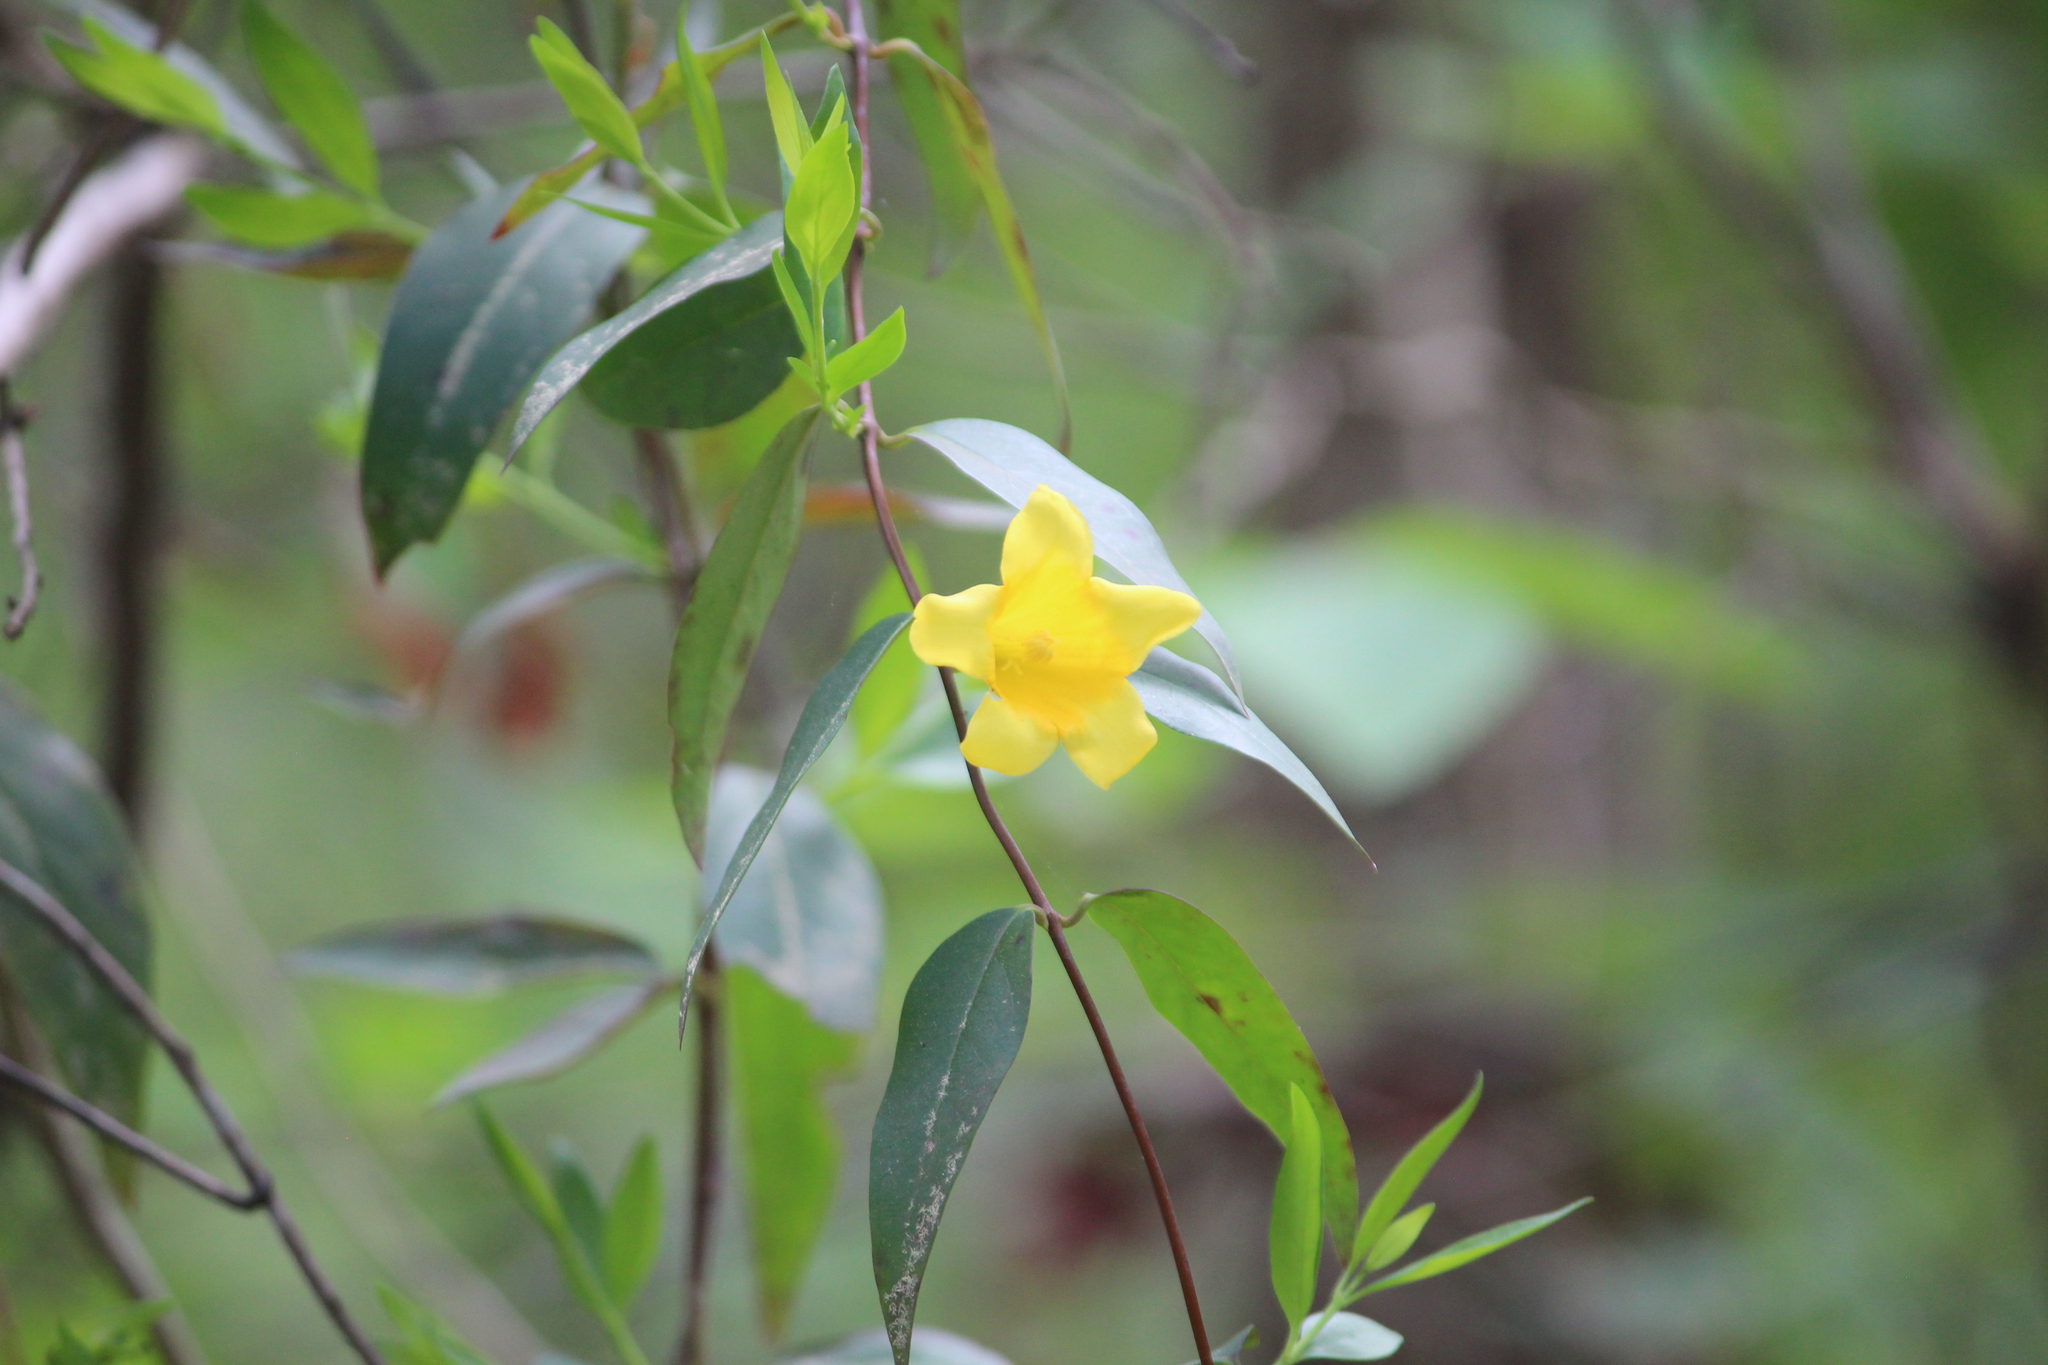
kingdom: Plantae
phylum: Tracheophyta
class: Magnoliopsida
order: Gentianales
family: Gelsemiaceae
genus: Gelsemium
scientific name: Gelsemium sempervirens
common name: Carolina-jasmine
